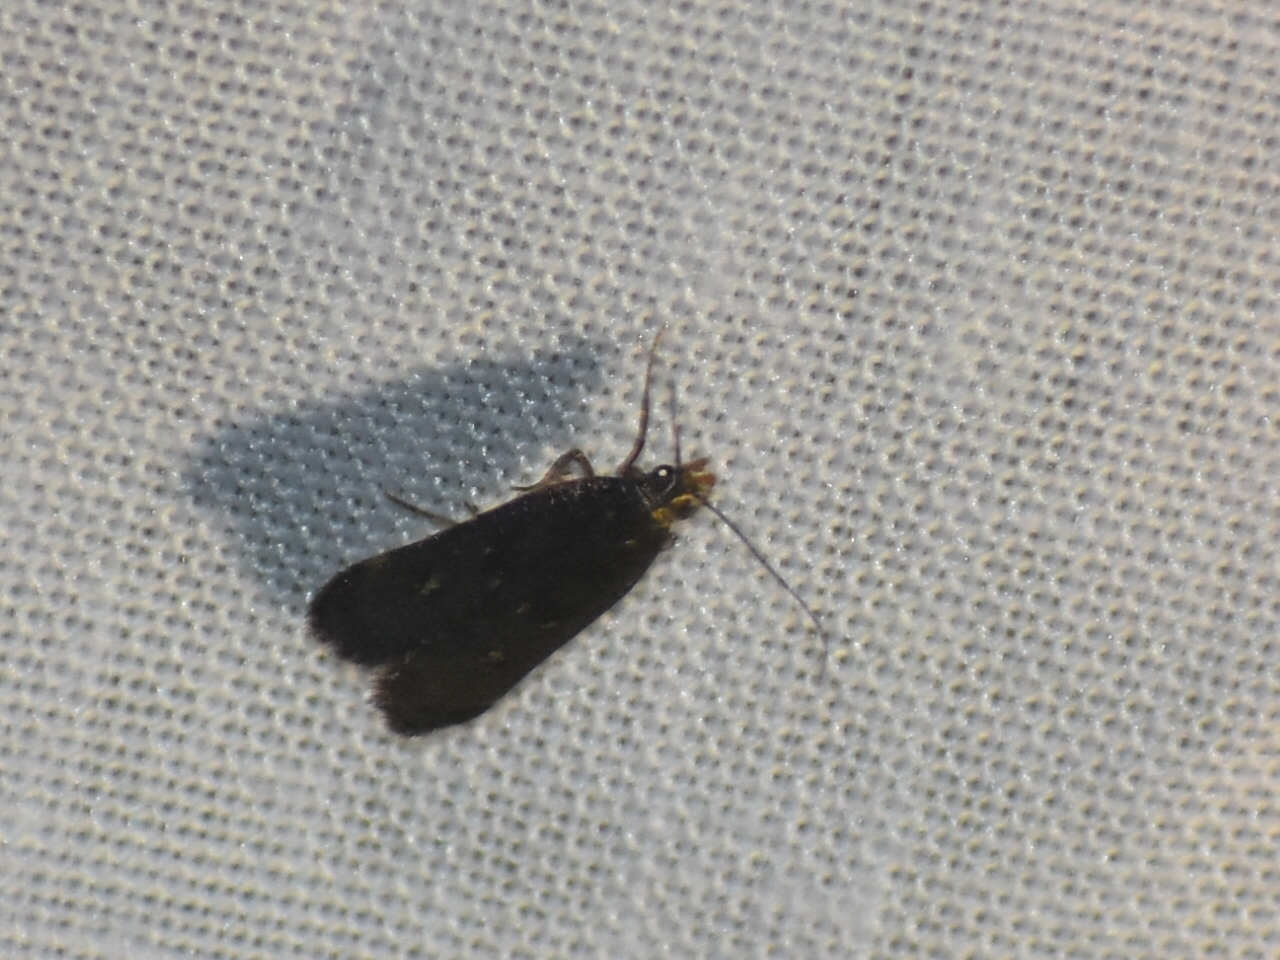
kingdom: Animalia
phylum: Arthropoda
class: Insecta
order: Lepidoptera
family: Gelechiidae
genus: Dichomeris
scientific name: Dichomeris juncidella
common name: Orange-dotted dichomeris moth
